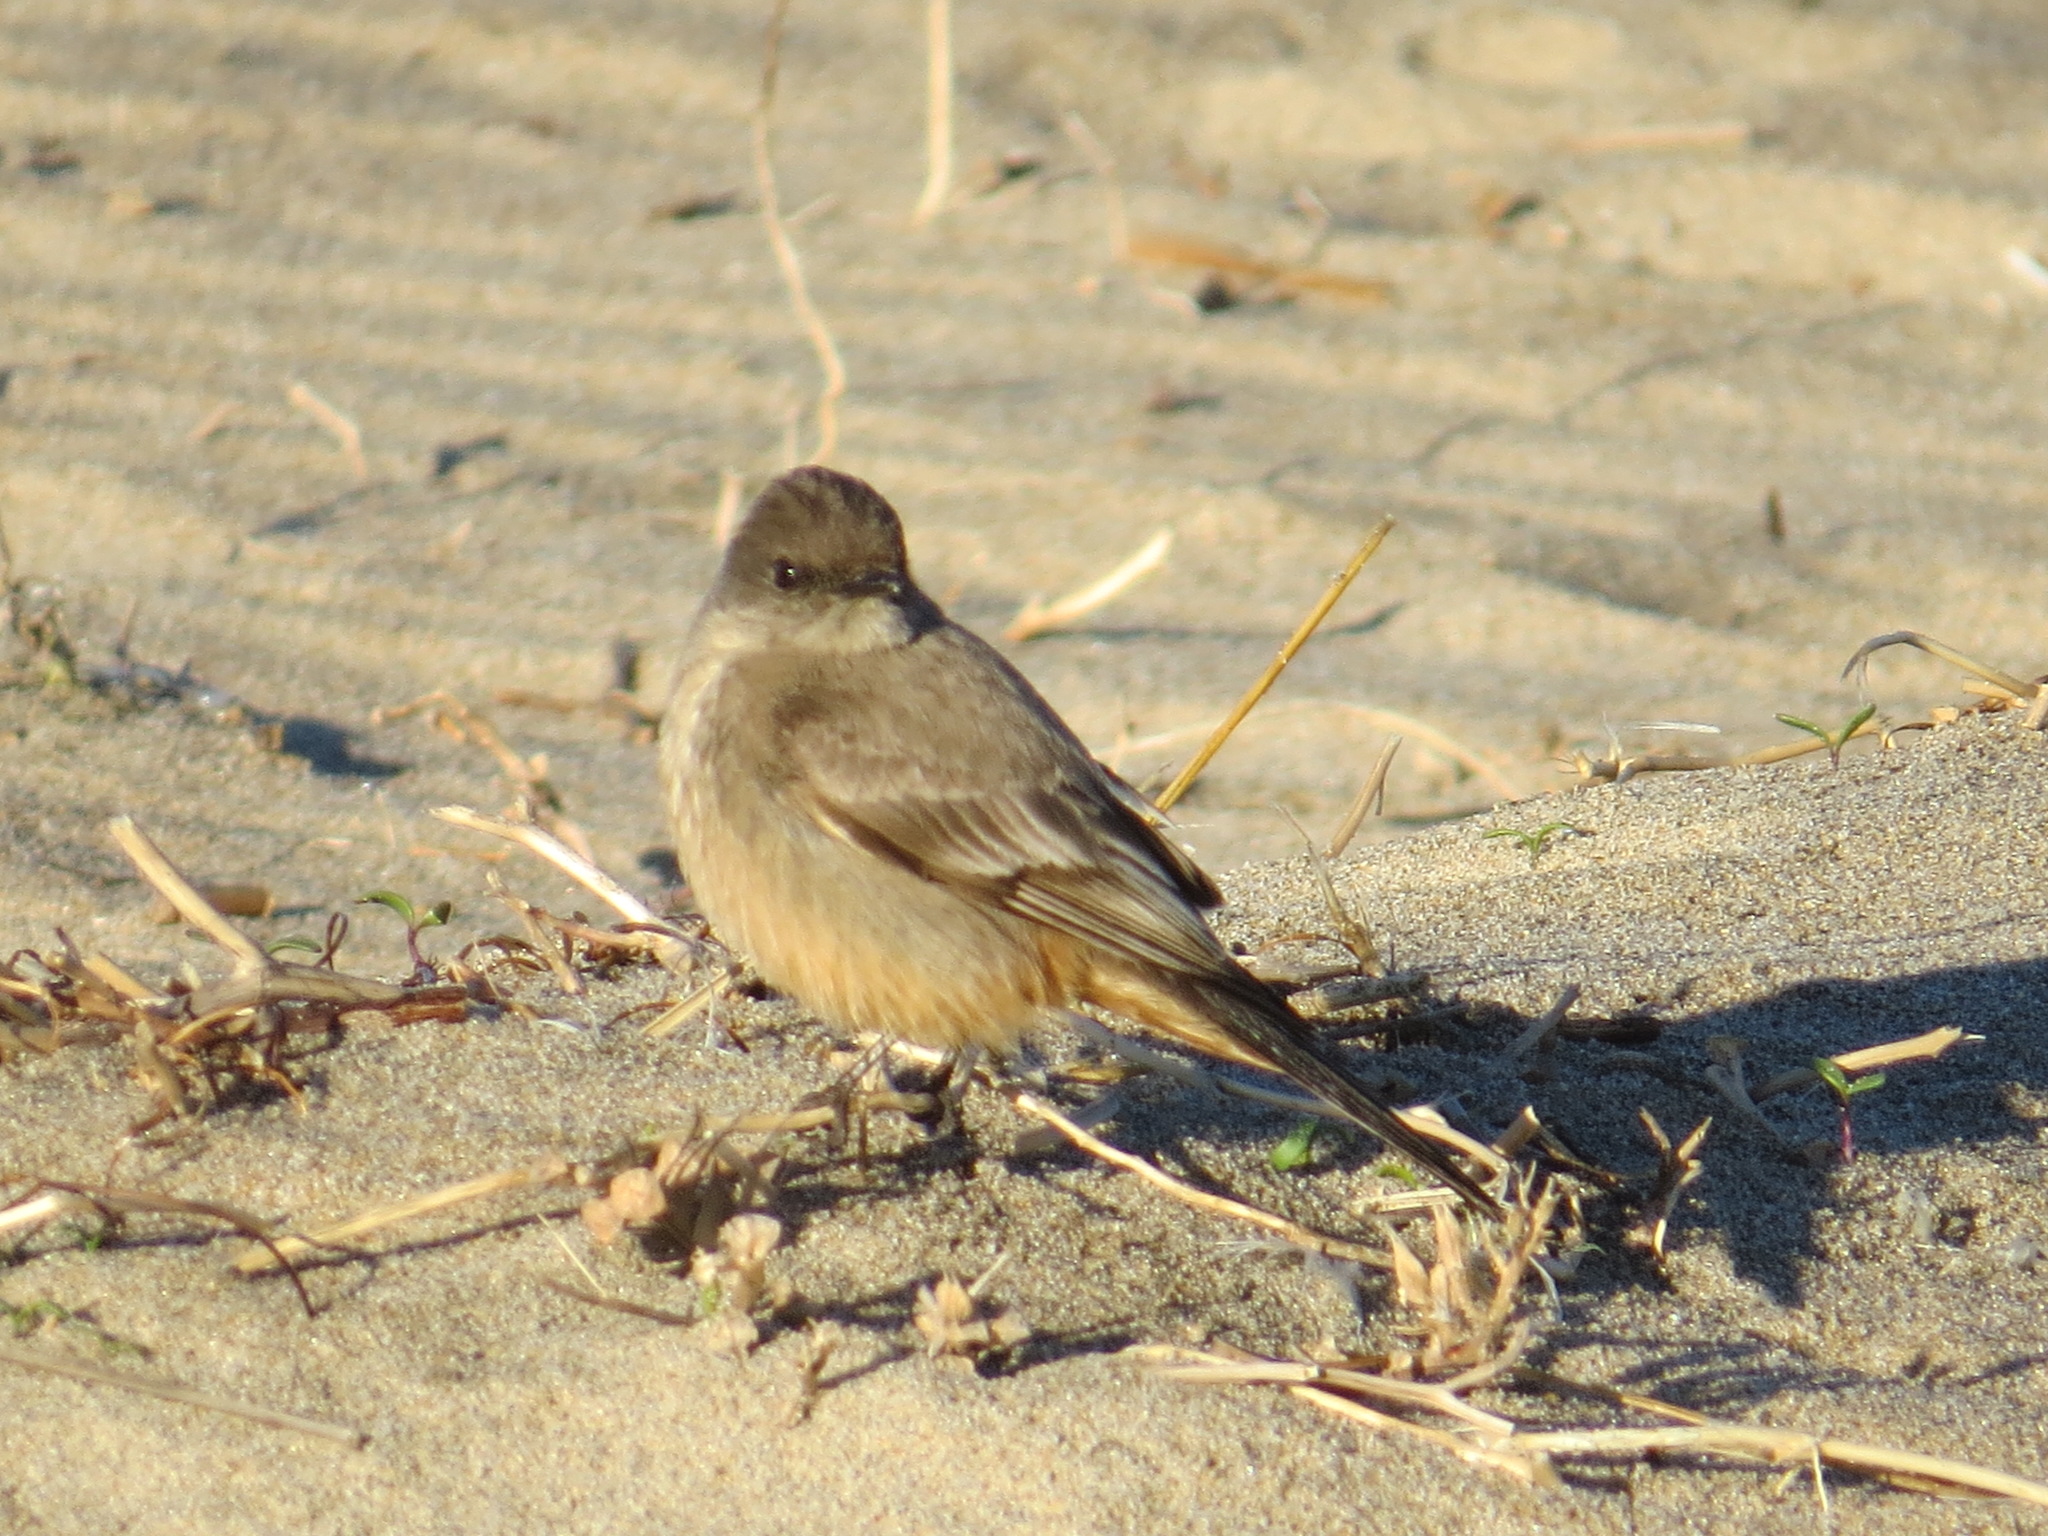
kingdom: Animalia
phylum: Chordata
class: Aves
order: Passeriformes
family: Tyrannidae
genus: Sayornis
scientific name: Sayornis saya
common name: Say's phoebe
